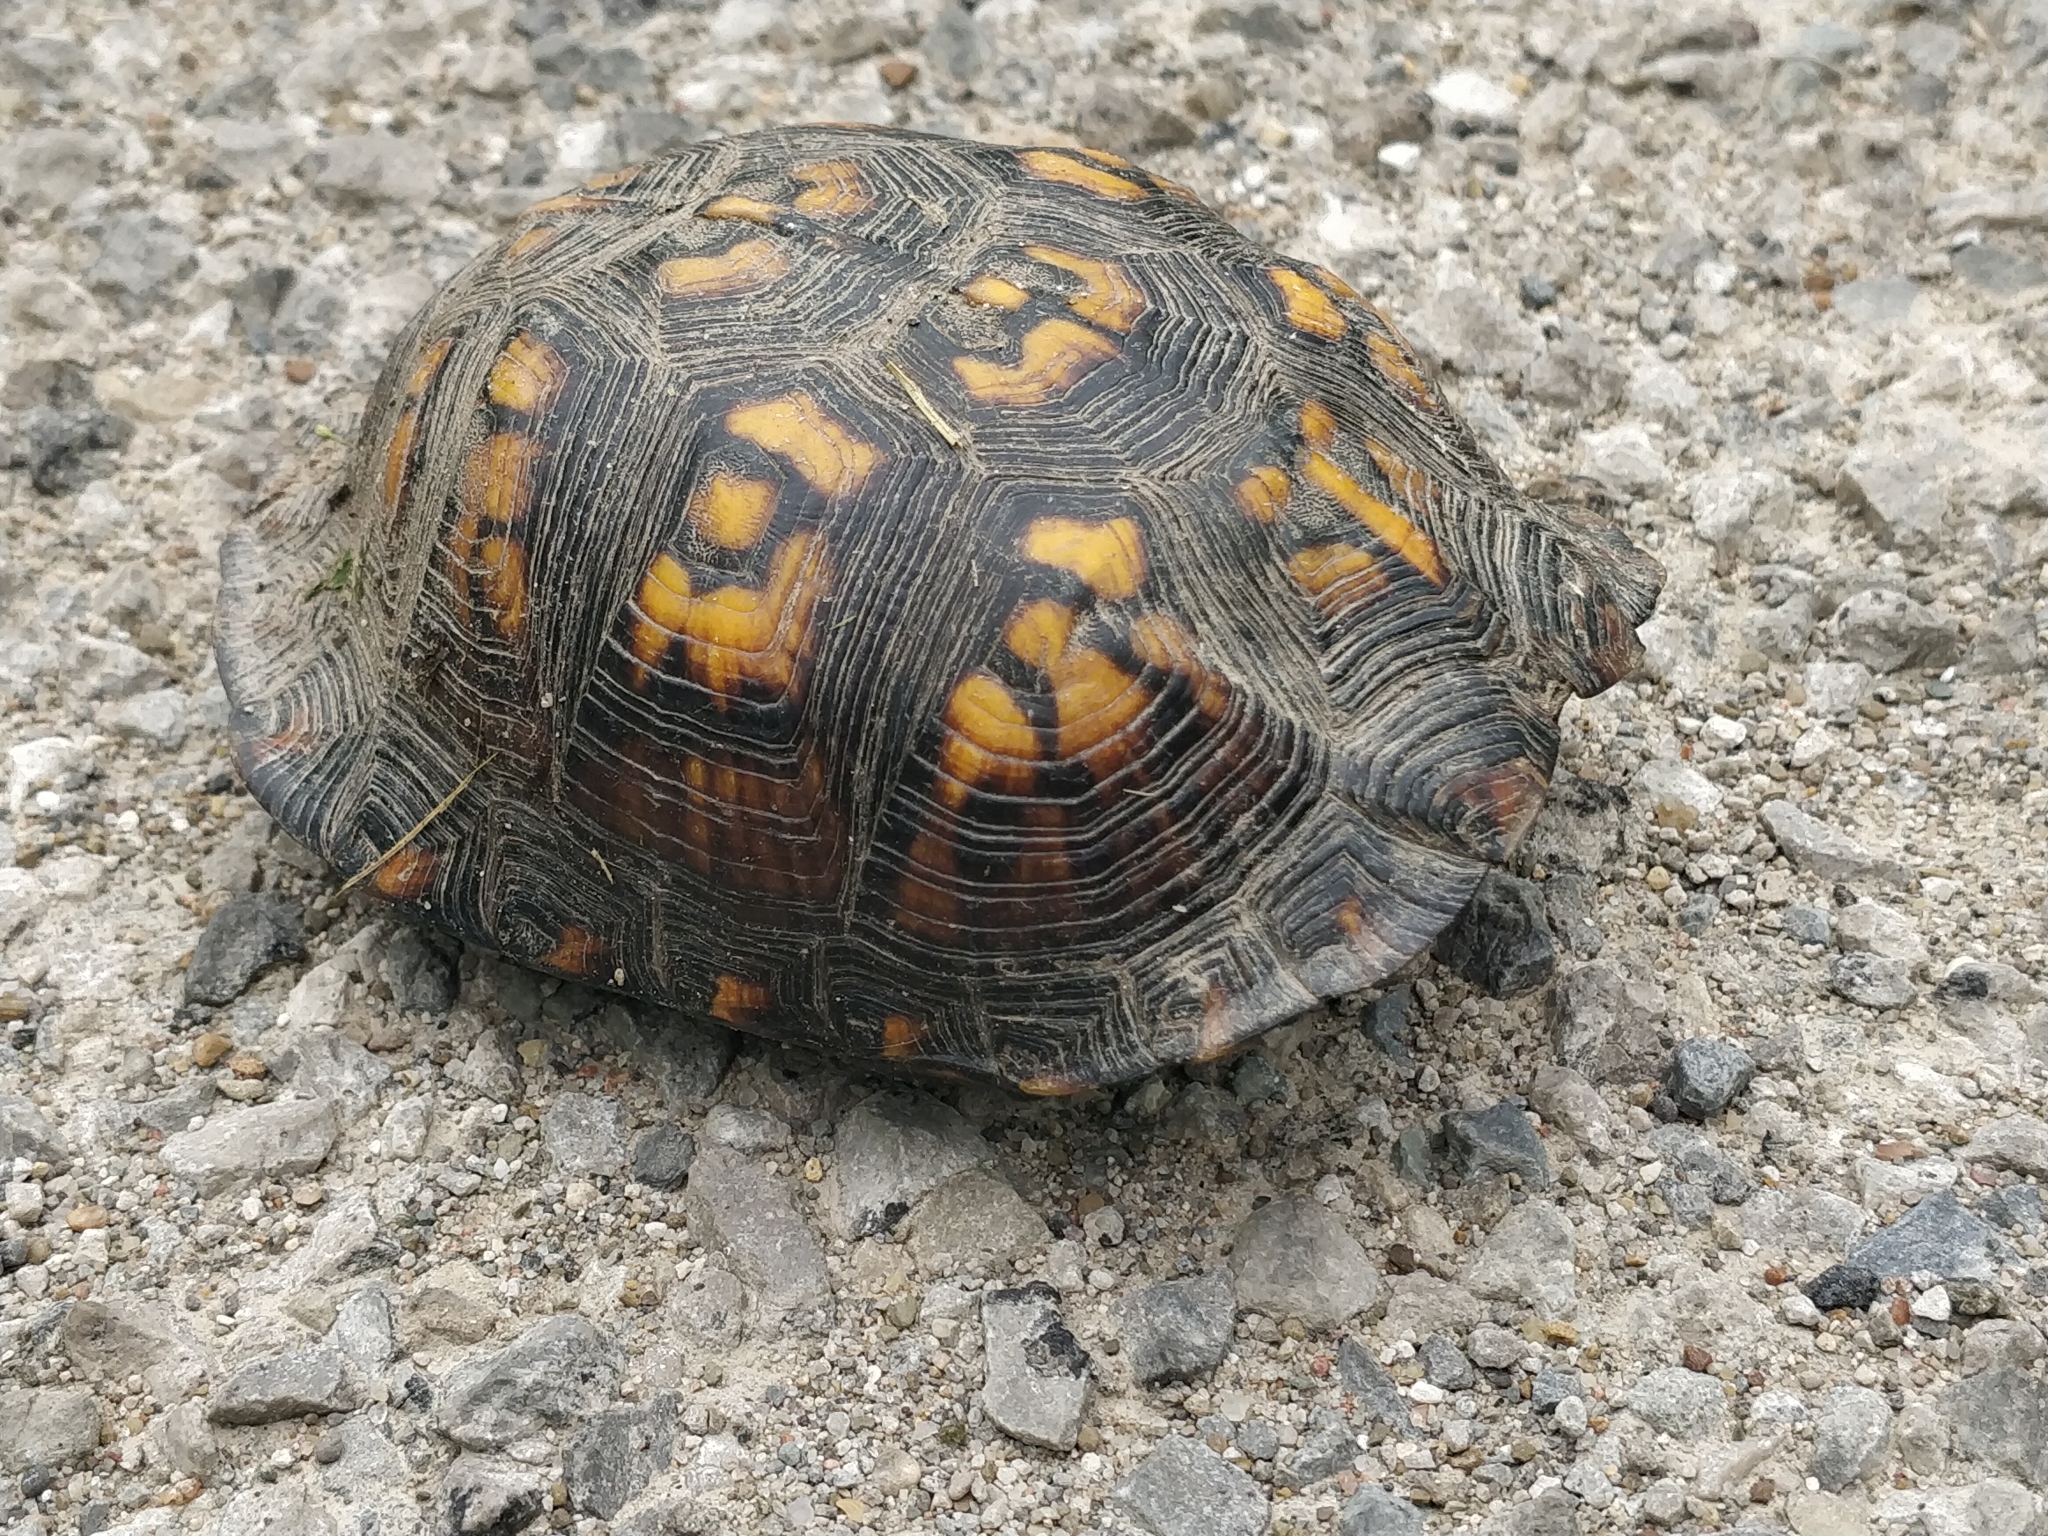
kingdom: Animalia
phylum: Chordata
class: Testudines
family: Emydidae
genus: Terrapene
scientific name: Terrapene carolina
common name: Common box turtle
